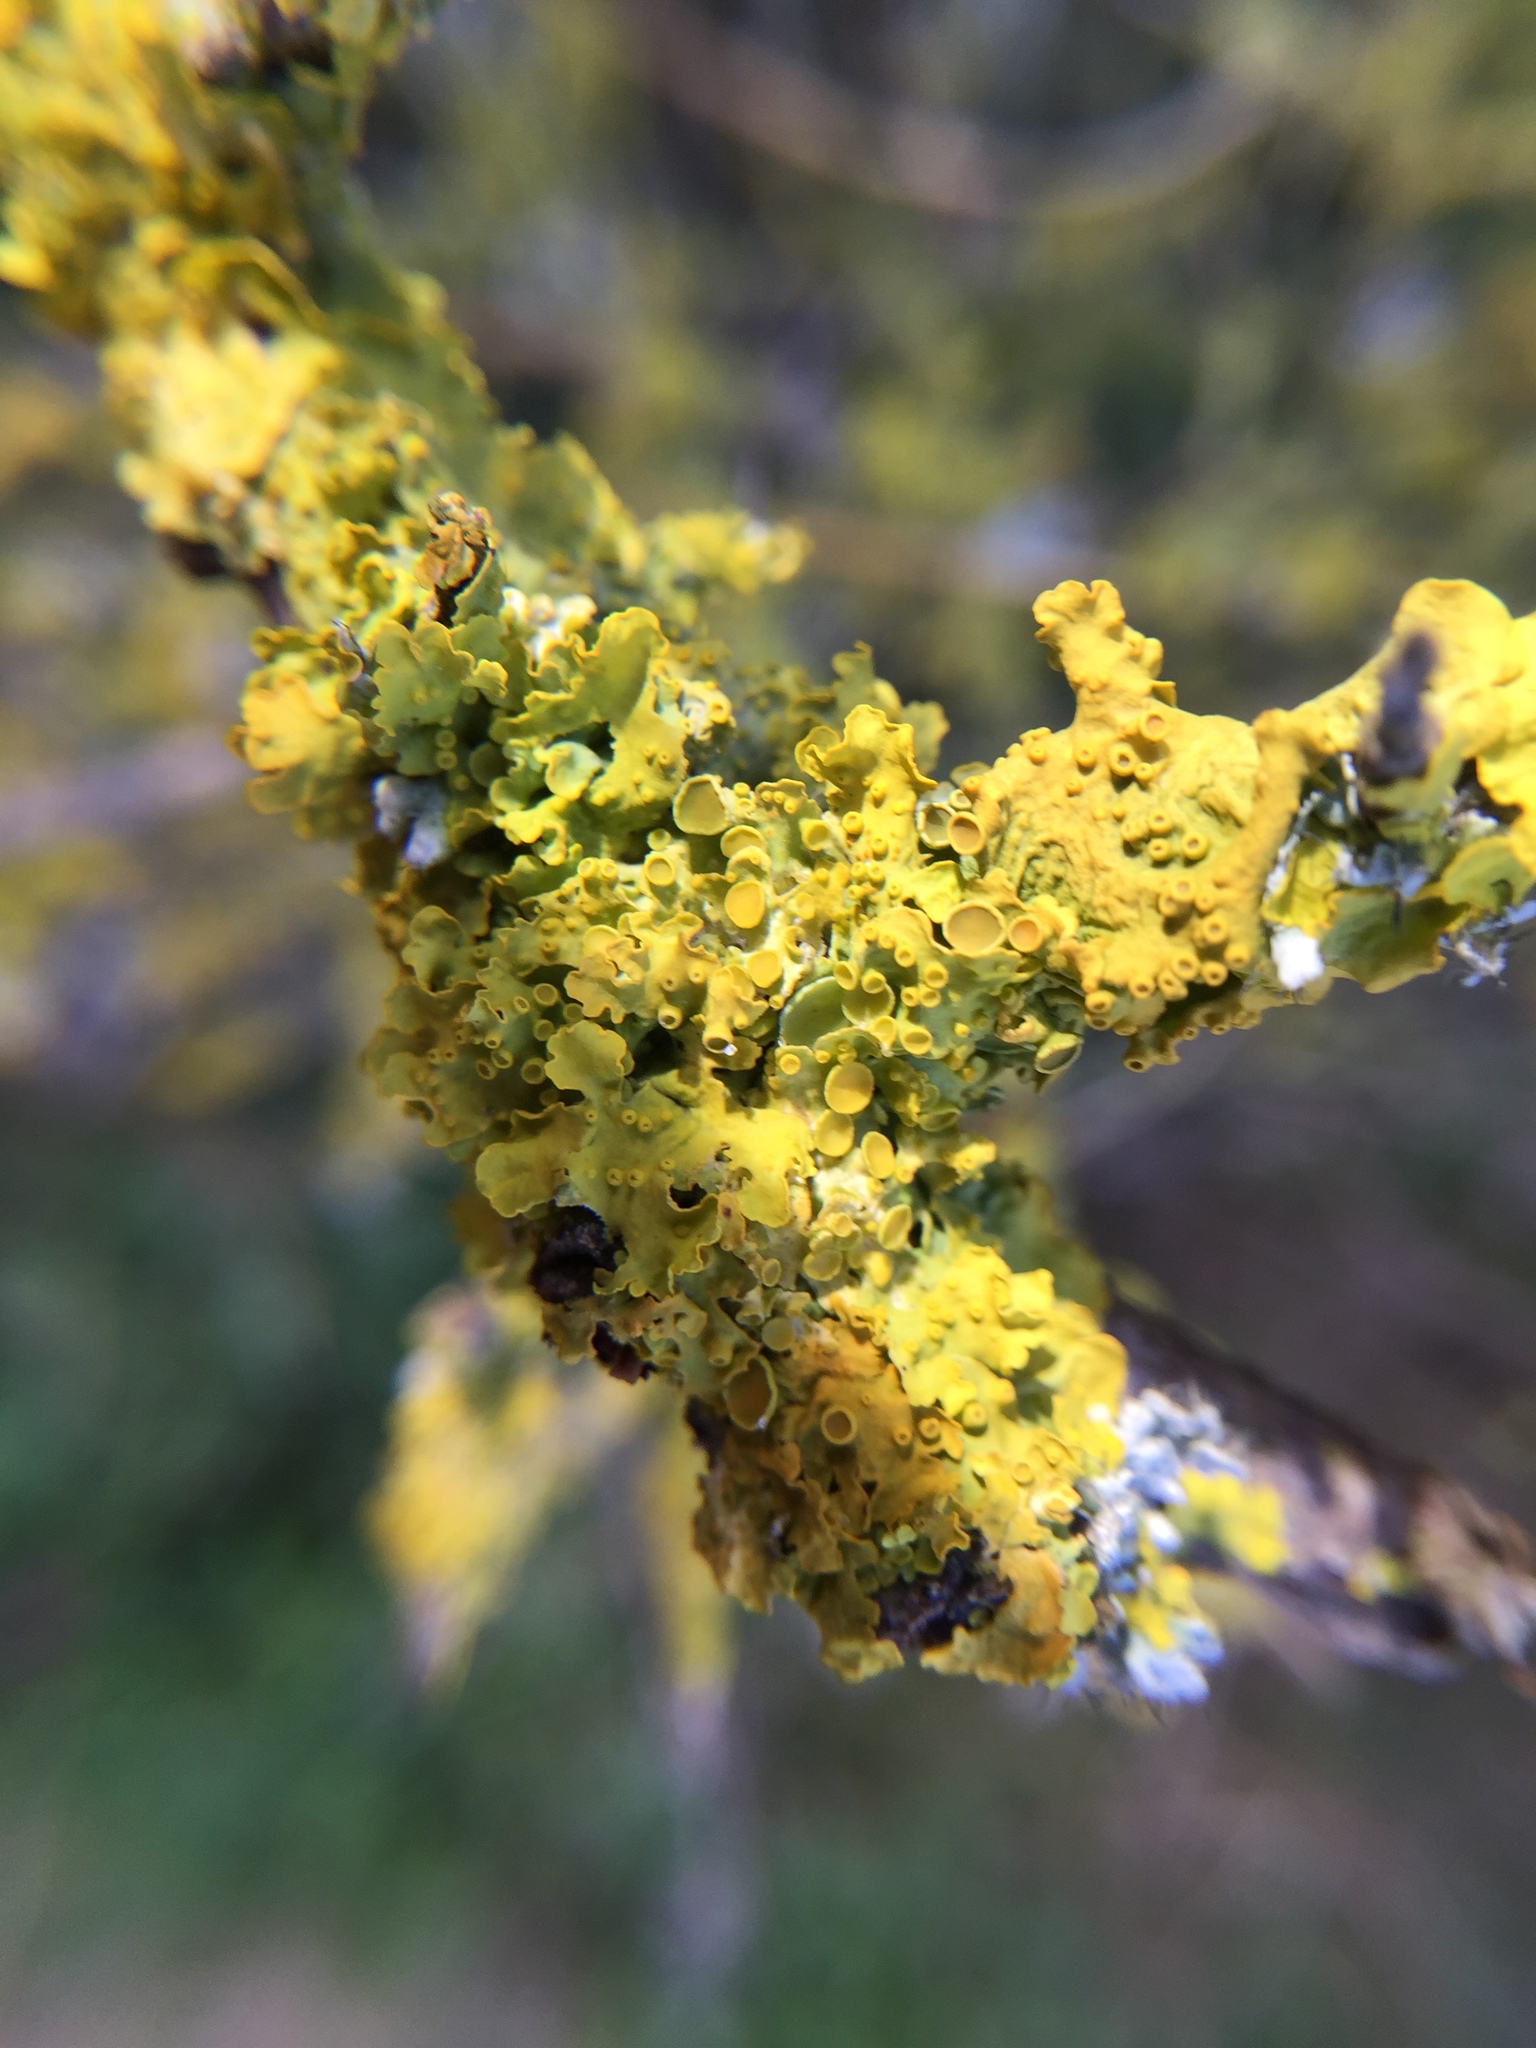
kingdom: Fungi
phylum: Ascomycota
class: Lecanoromycetes
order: Teloschistales
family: Teloschistaceae
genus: Xanthoria
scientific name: Xanthoria parietina
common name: Common orange lichen
